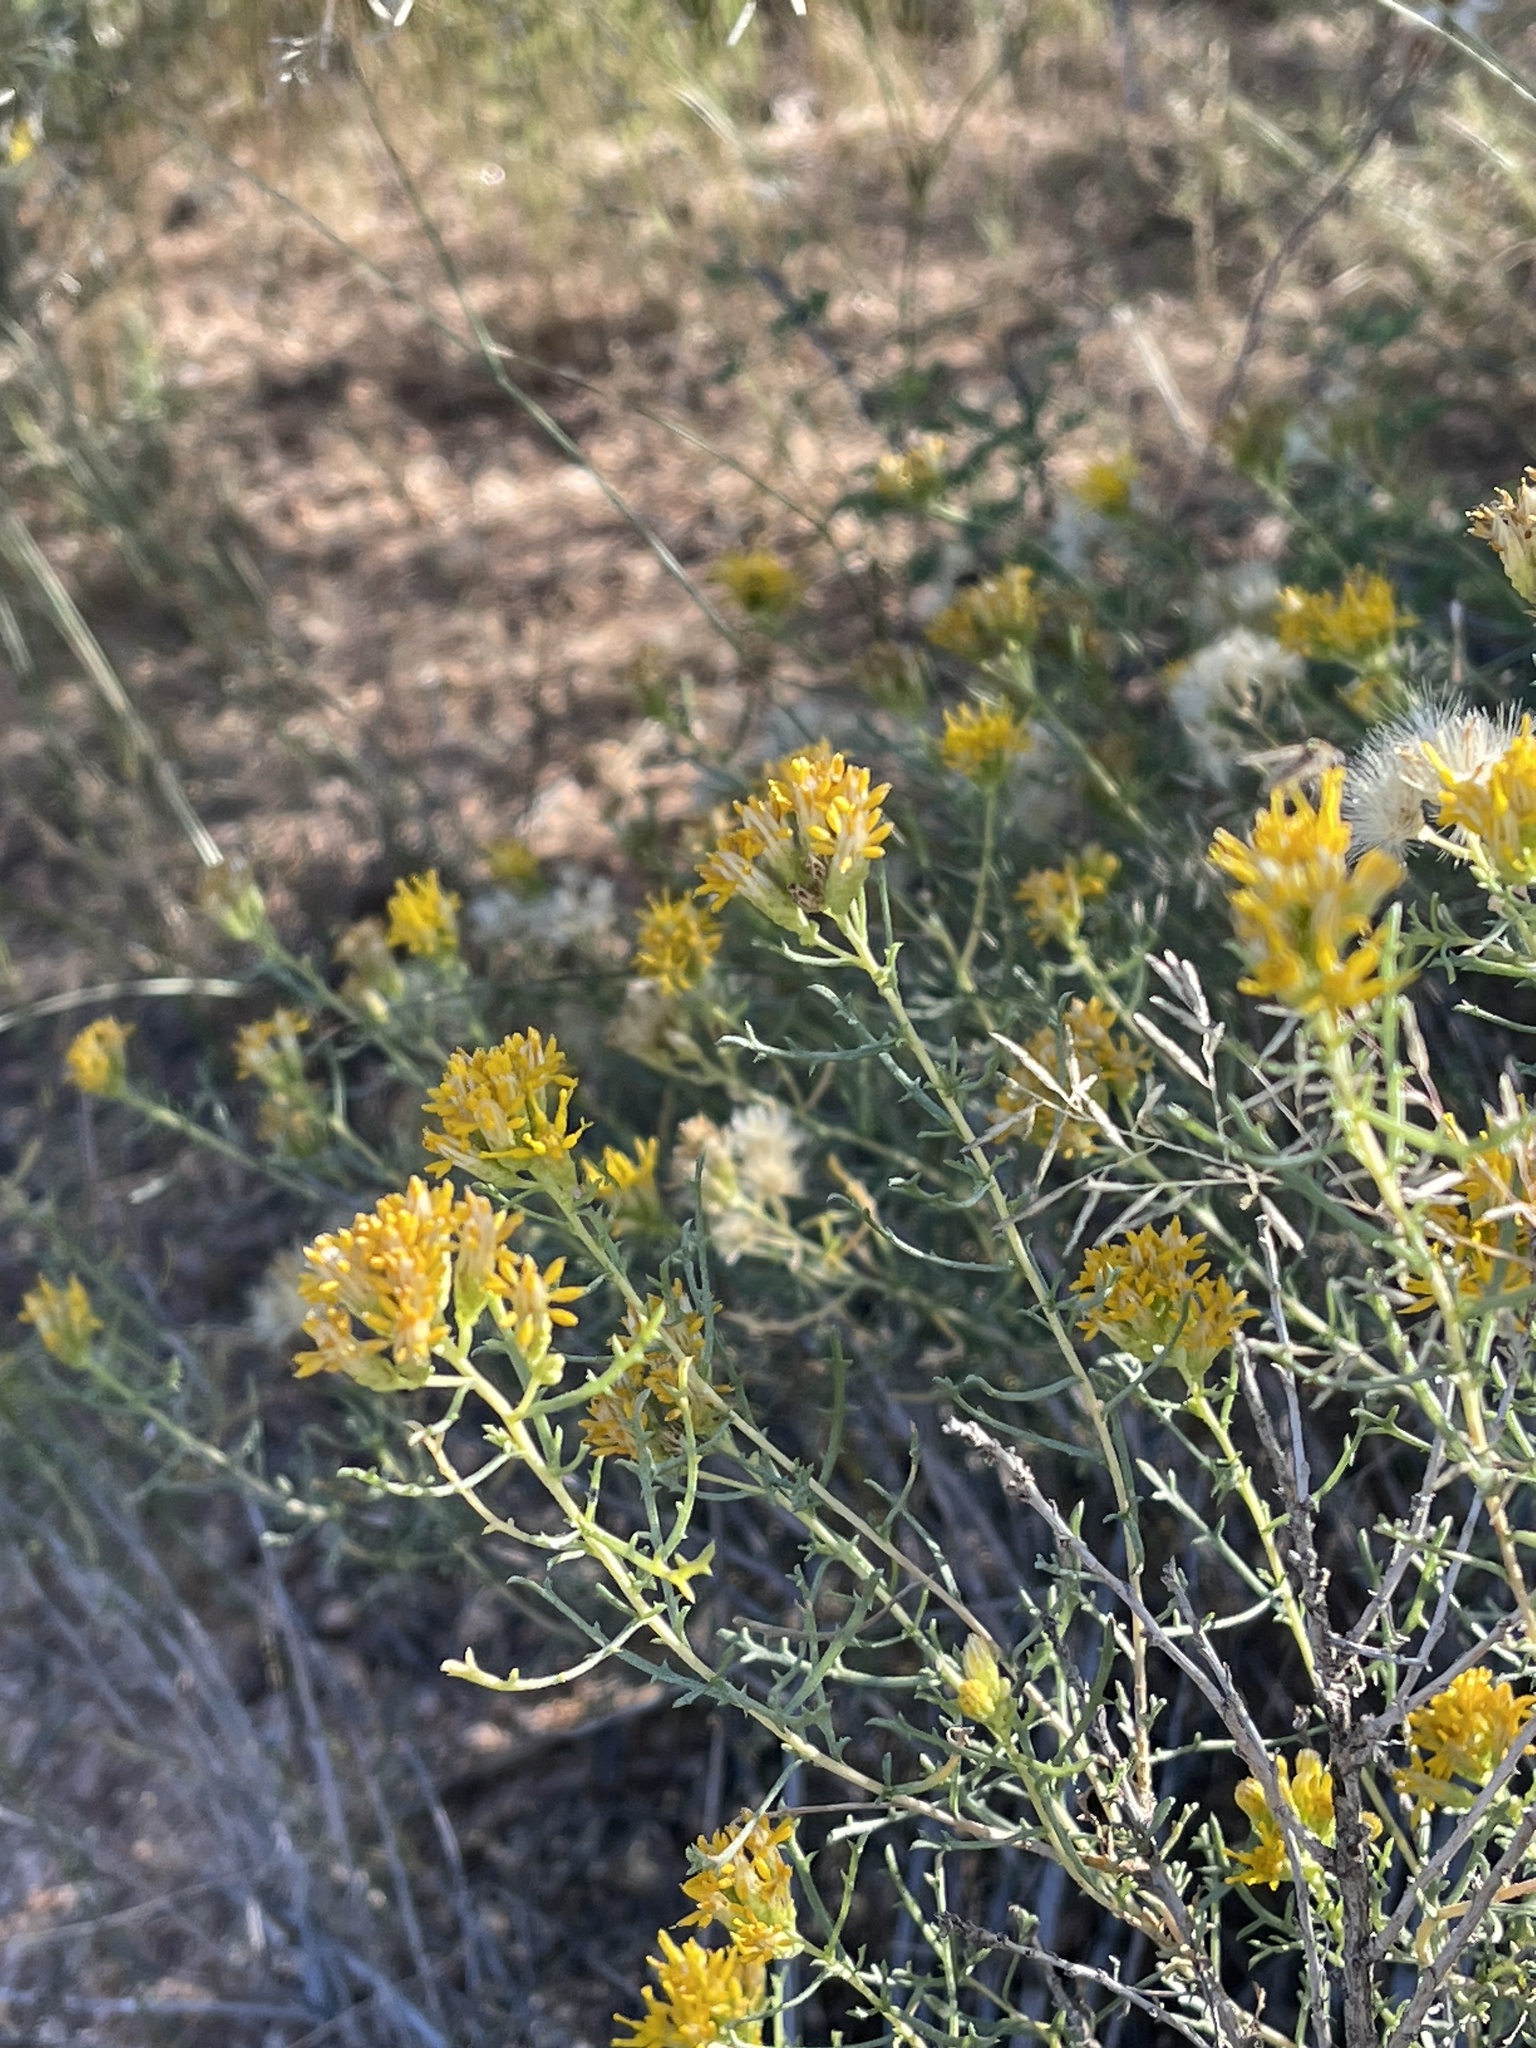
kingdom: Plantae
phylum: Tracheophyta
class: Magnoliopsida
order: Asterales
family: Asteraceae
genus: Isocoma
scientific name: Isocoma tenuisecta
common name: Burroweed
